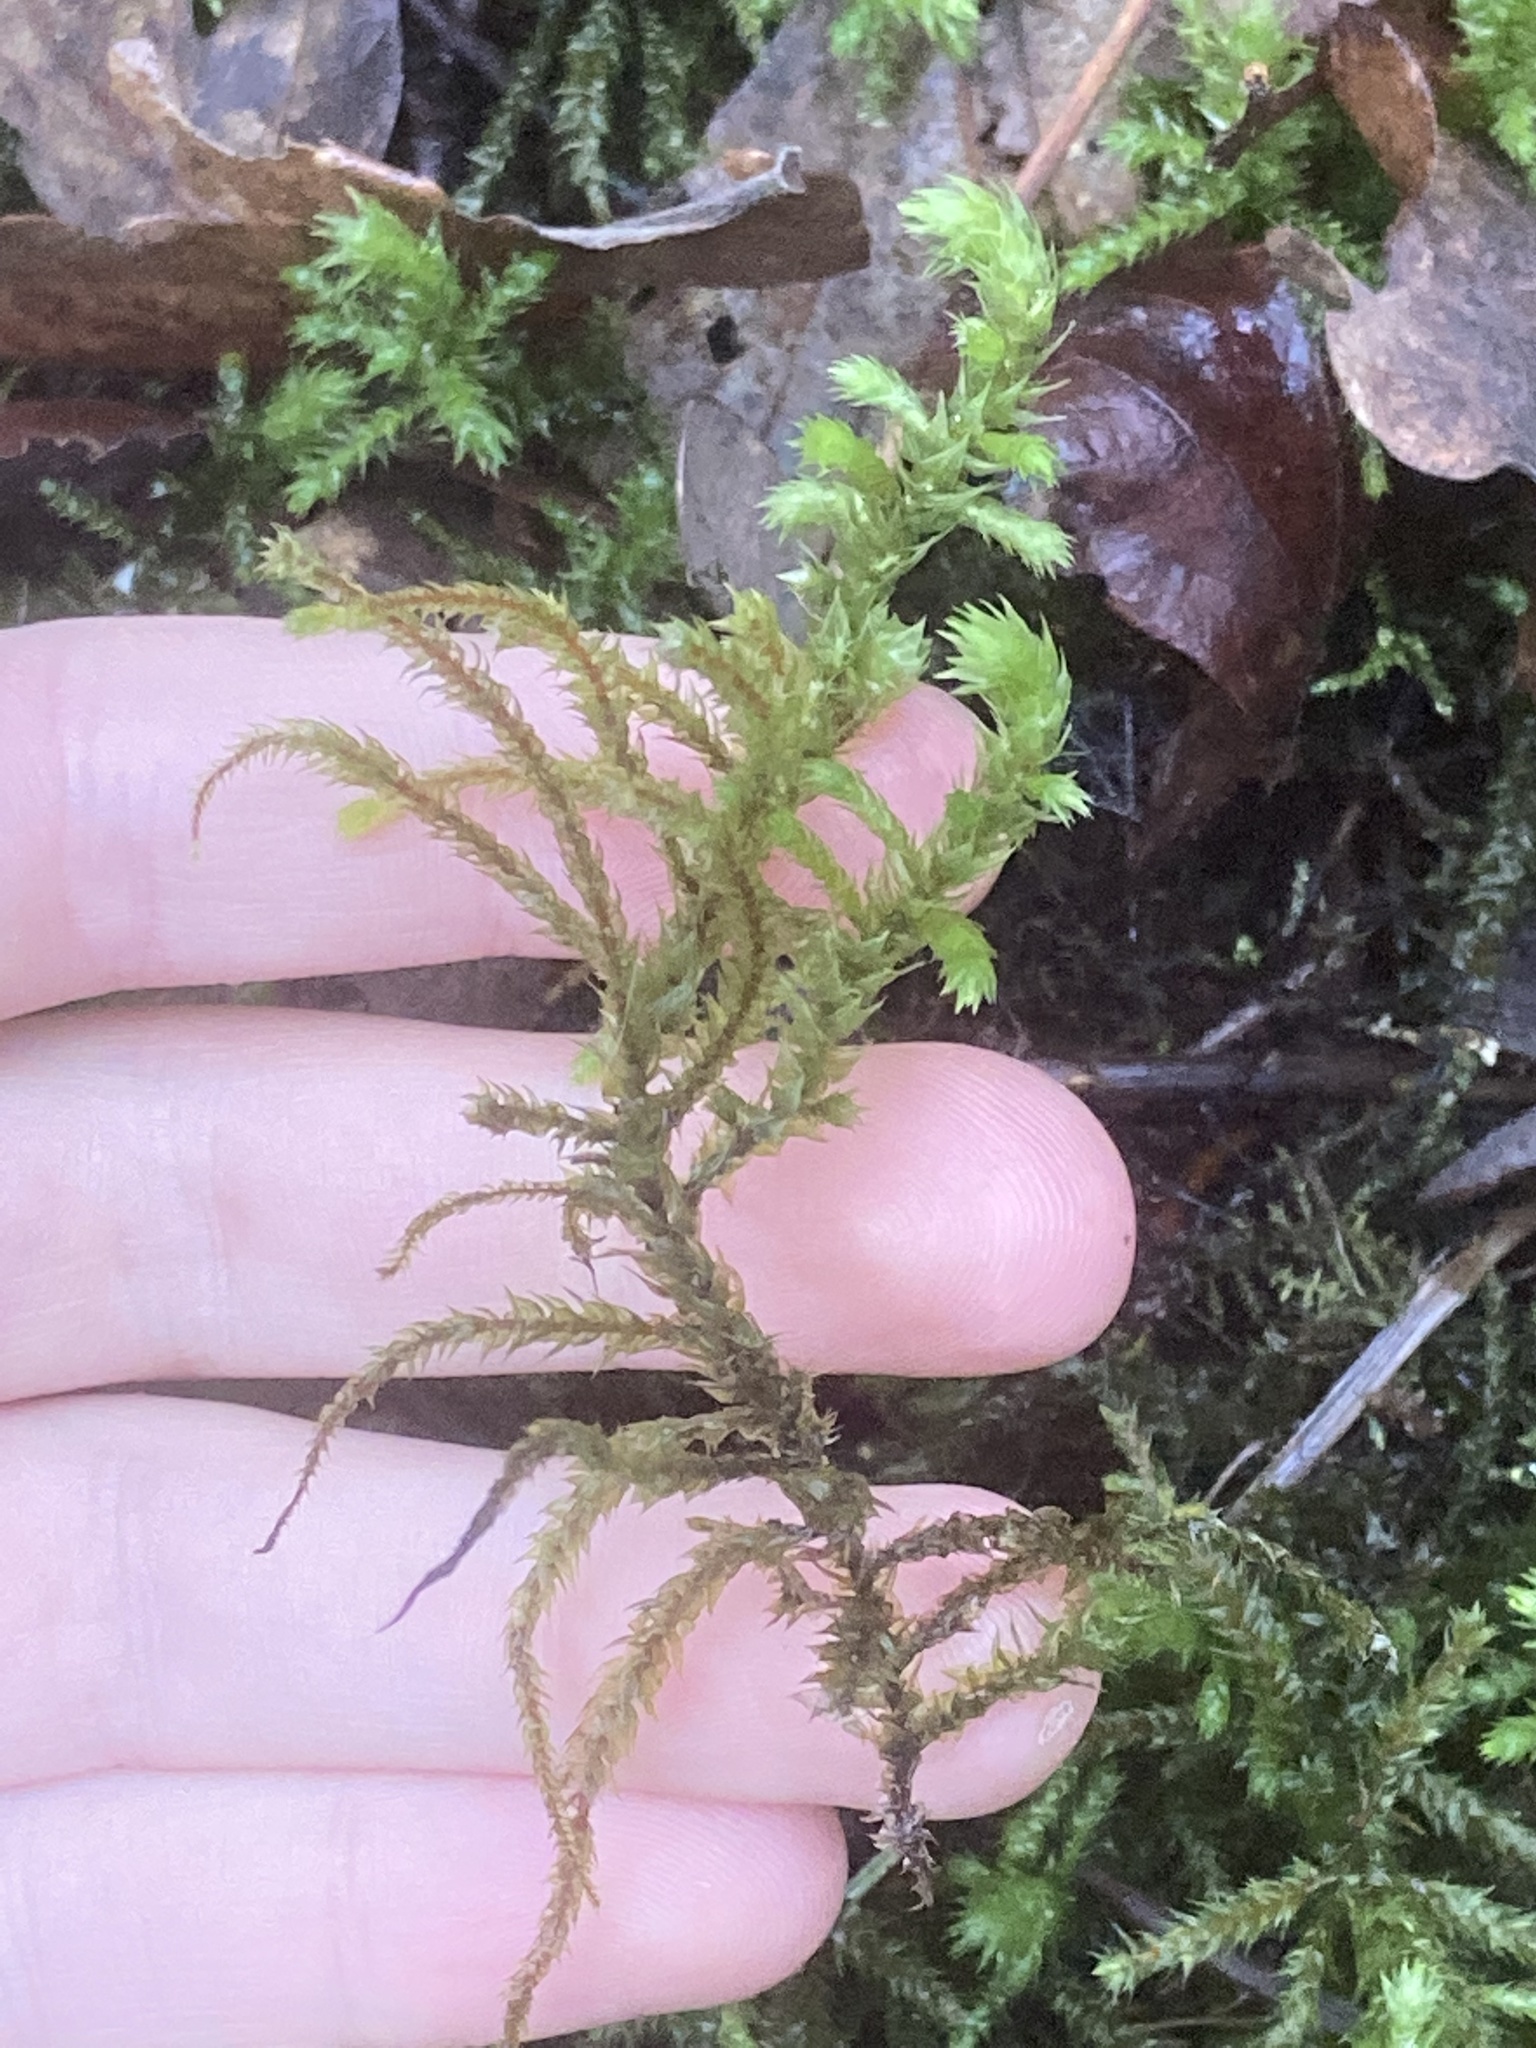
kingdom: Plantae
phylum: Bryophyta
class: Bryopsida
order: Hypnales
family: Hylocomiaceae
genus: Hylocomiadelphus
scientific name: Hylocomiadelphus triquetrus
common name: Rough goose neck moss
